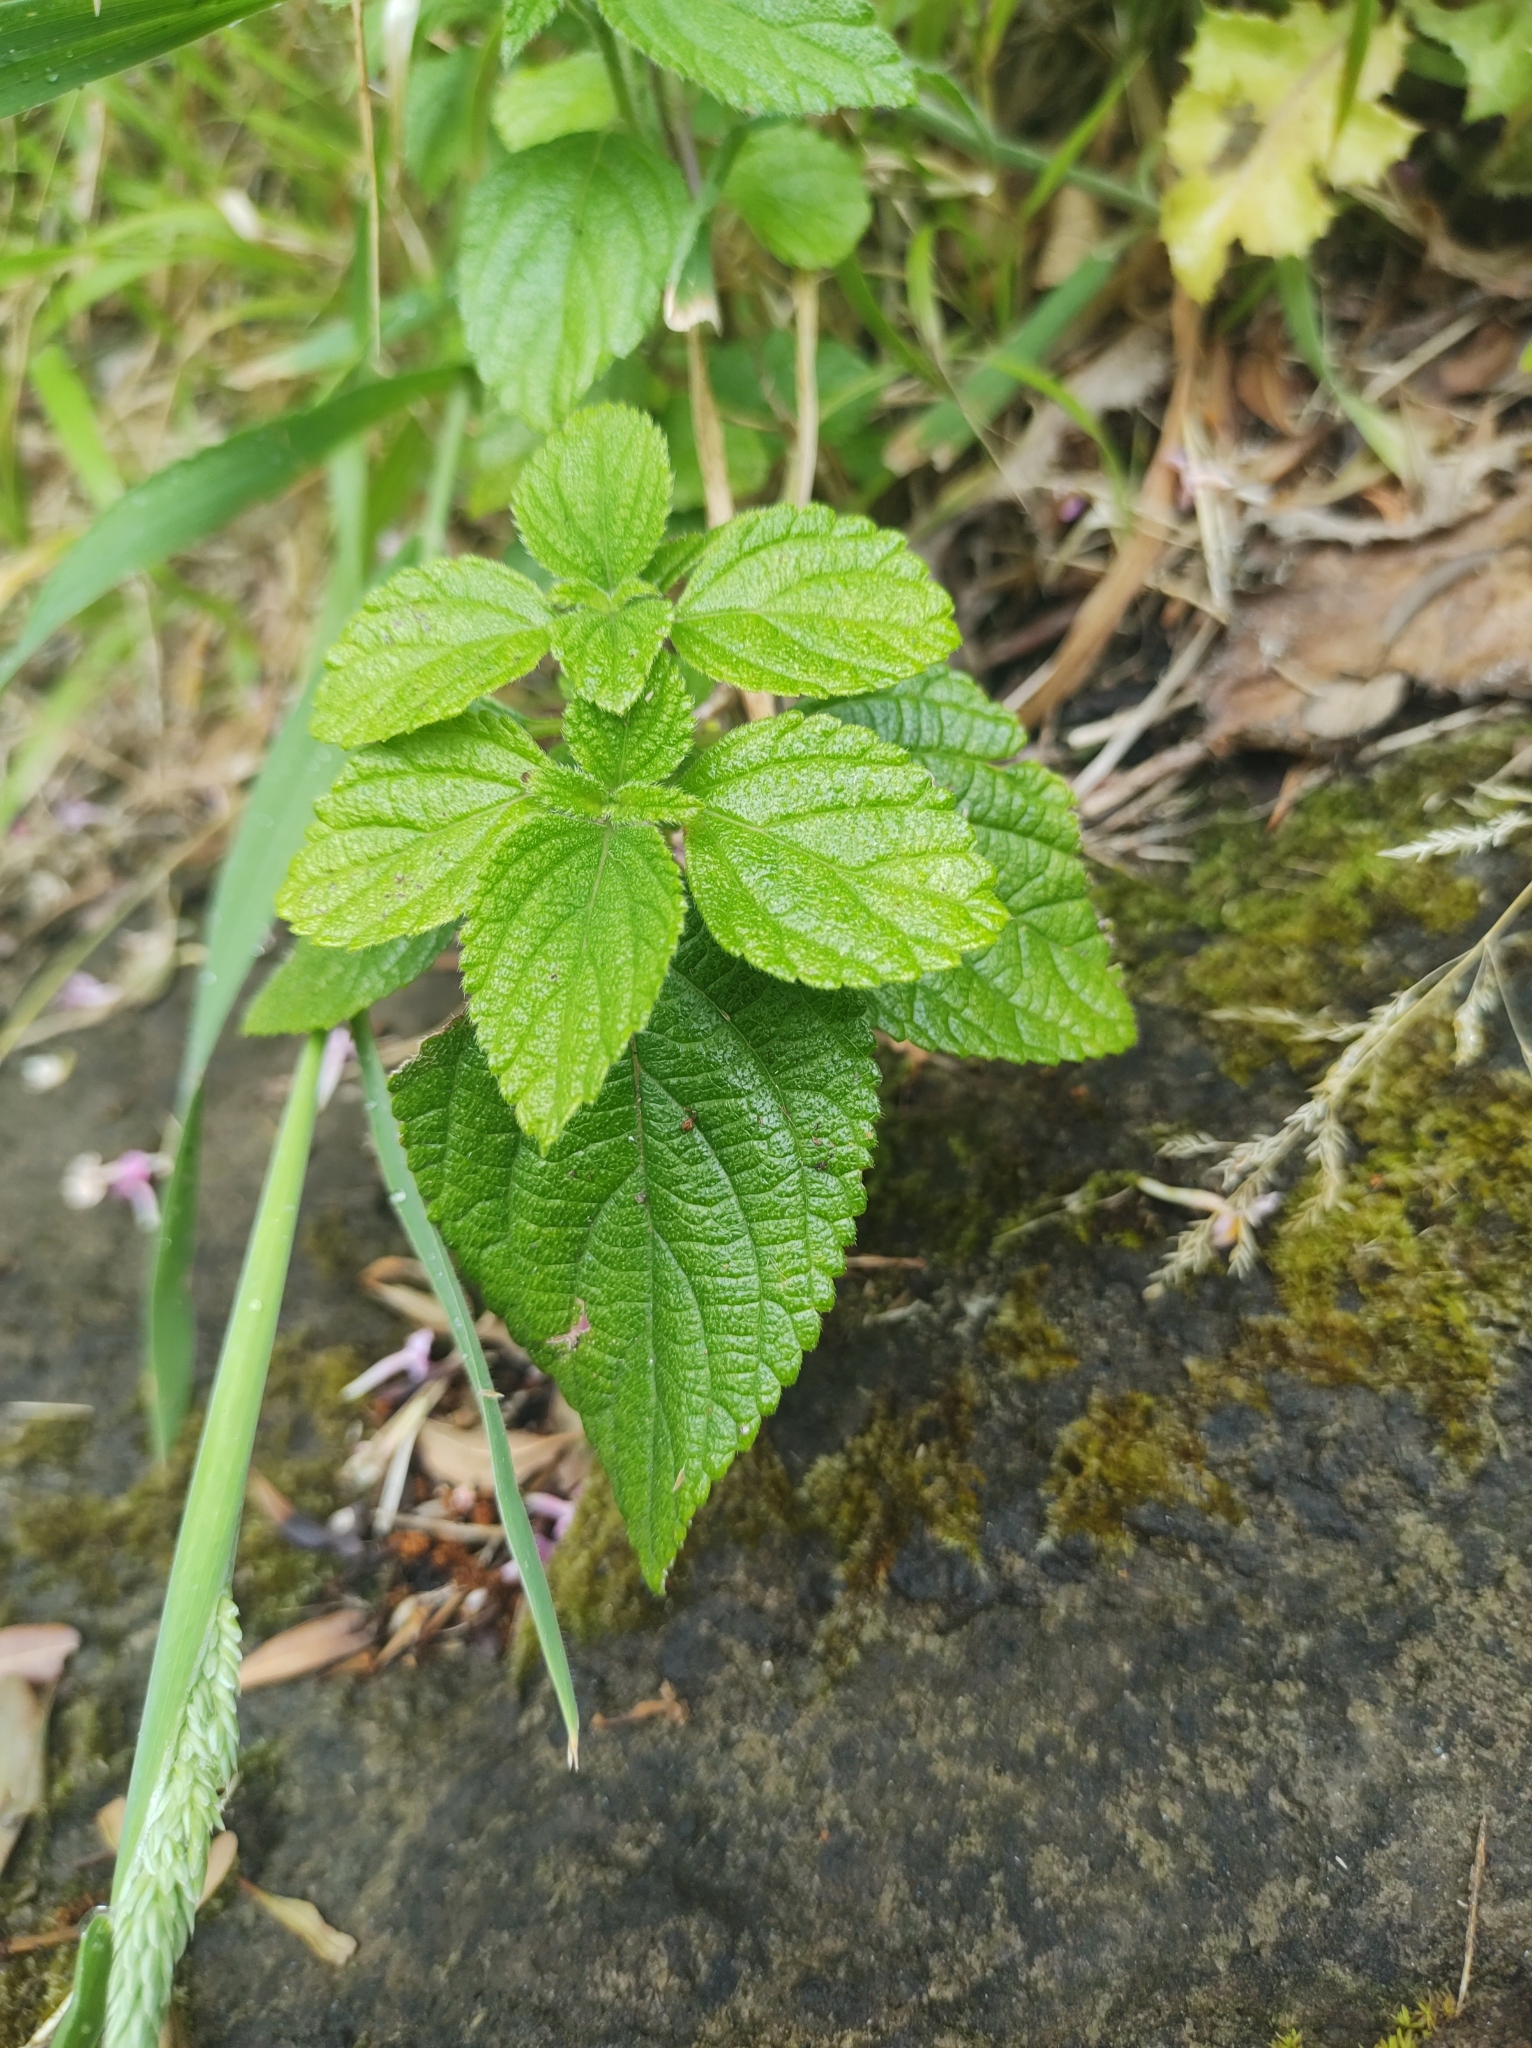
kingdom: Plantae
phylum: Tracheophyta
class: Magnoliopsida
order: Lamiales
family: Verbenaceae
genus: Lantana
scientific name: Lantana camara
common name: Lantana
